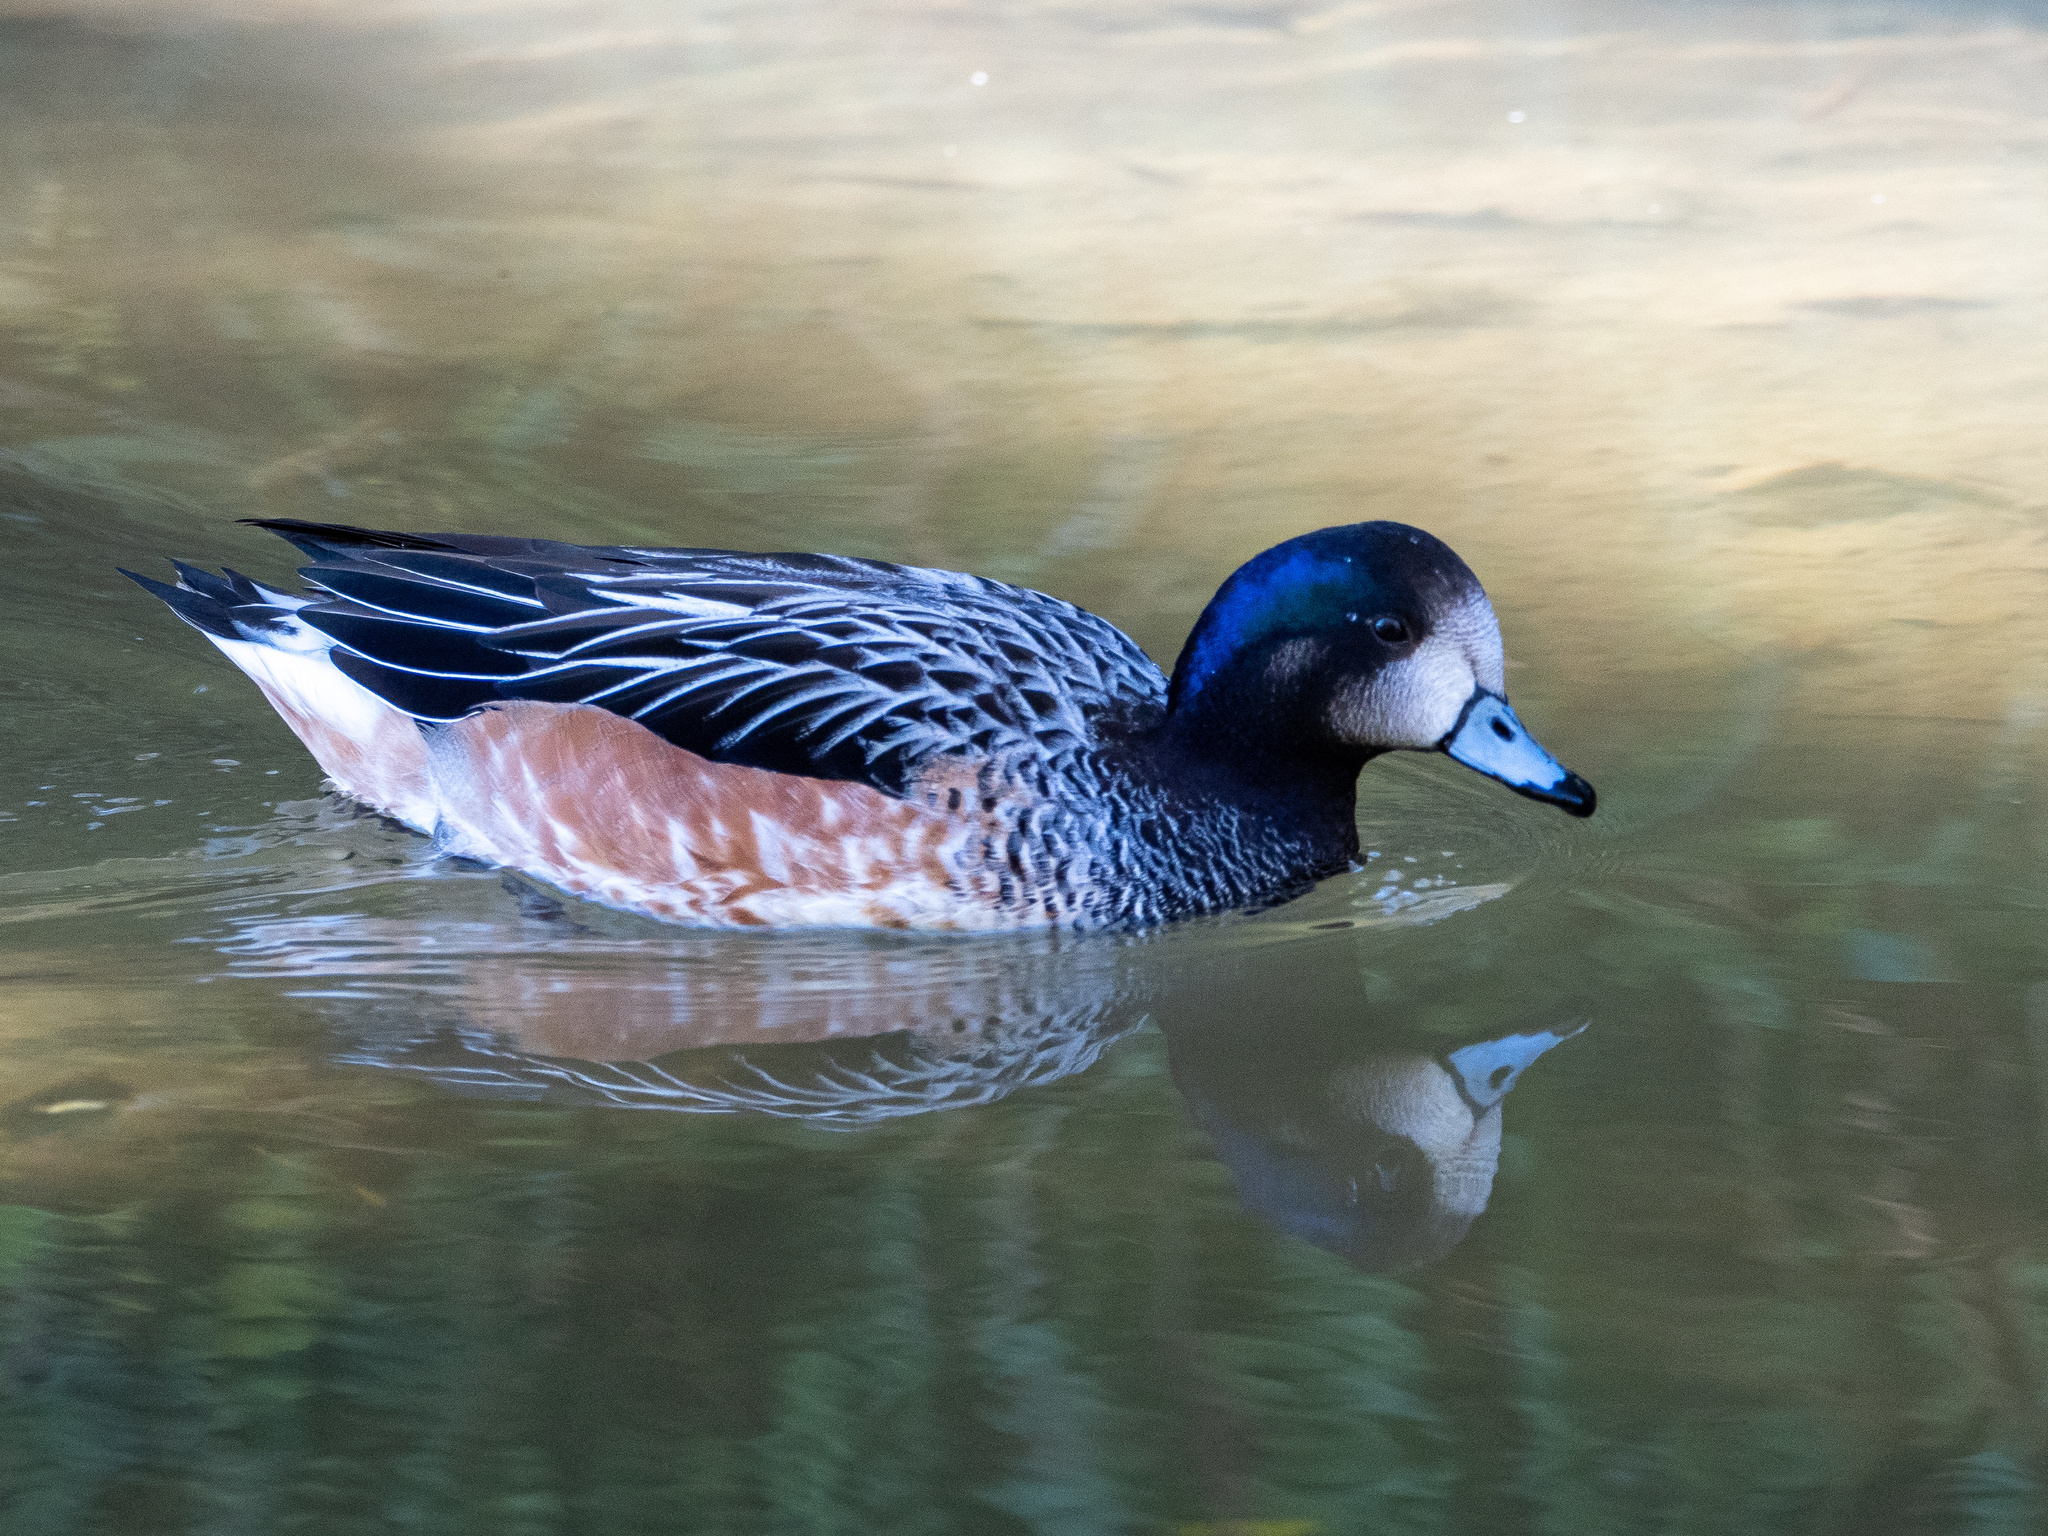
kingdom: Animalia
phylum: Chordata
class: Aves
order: Anseriformes
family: Anatidae
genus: Mareca
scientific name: Mareca sibilatrix
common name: Chiloe wigeon
